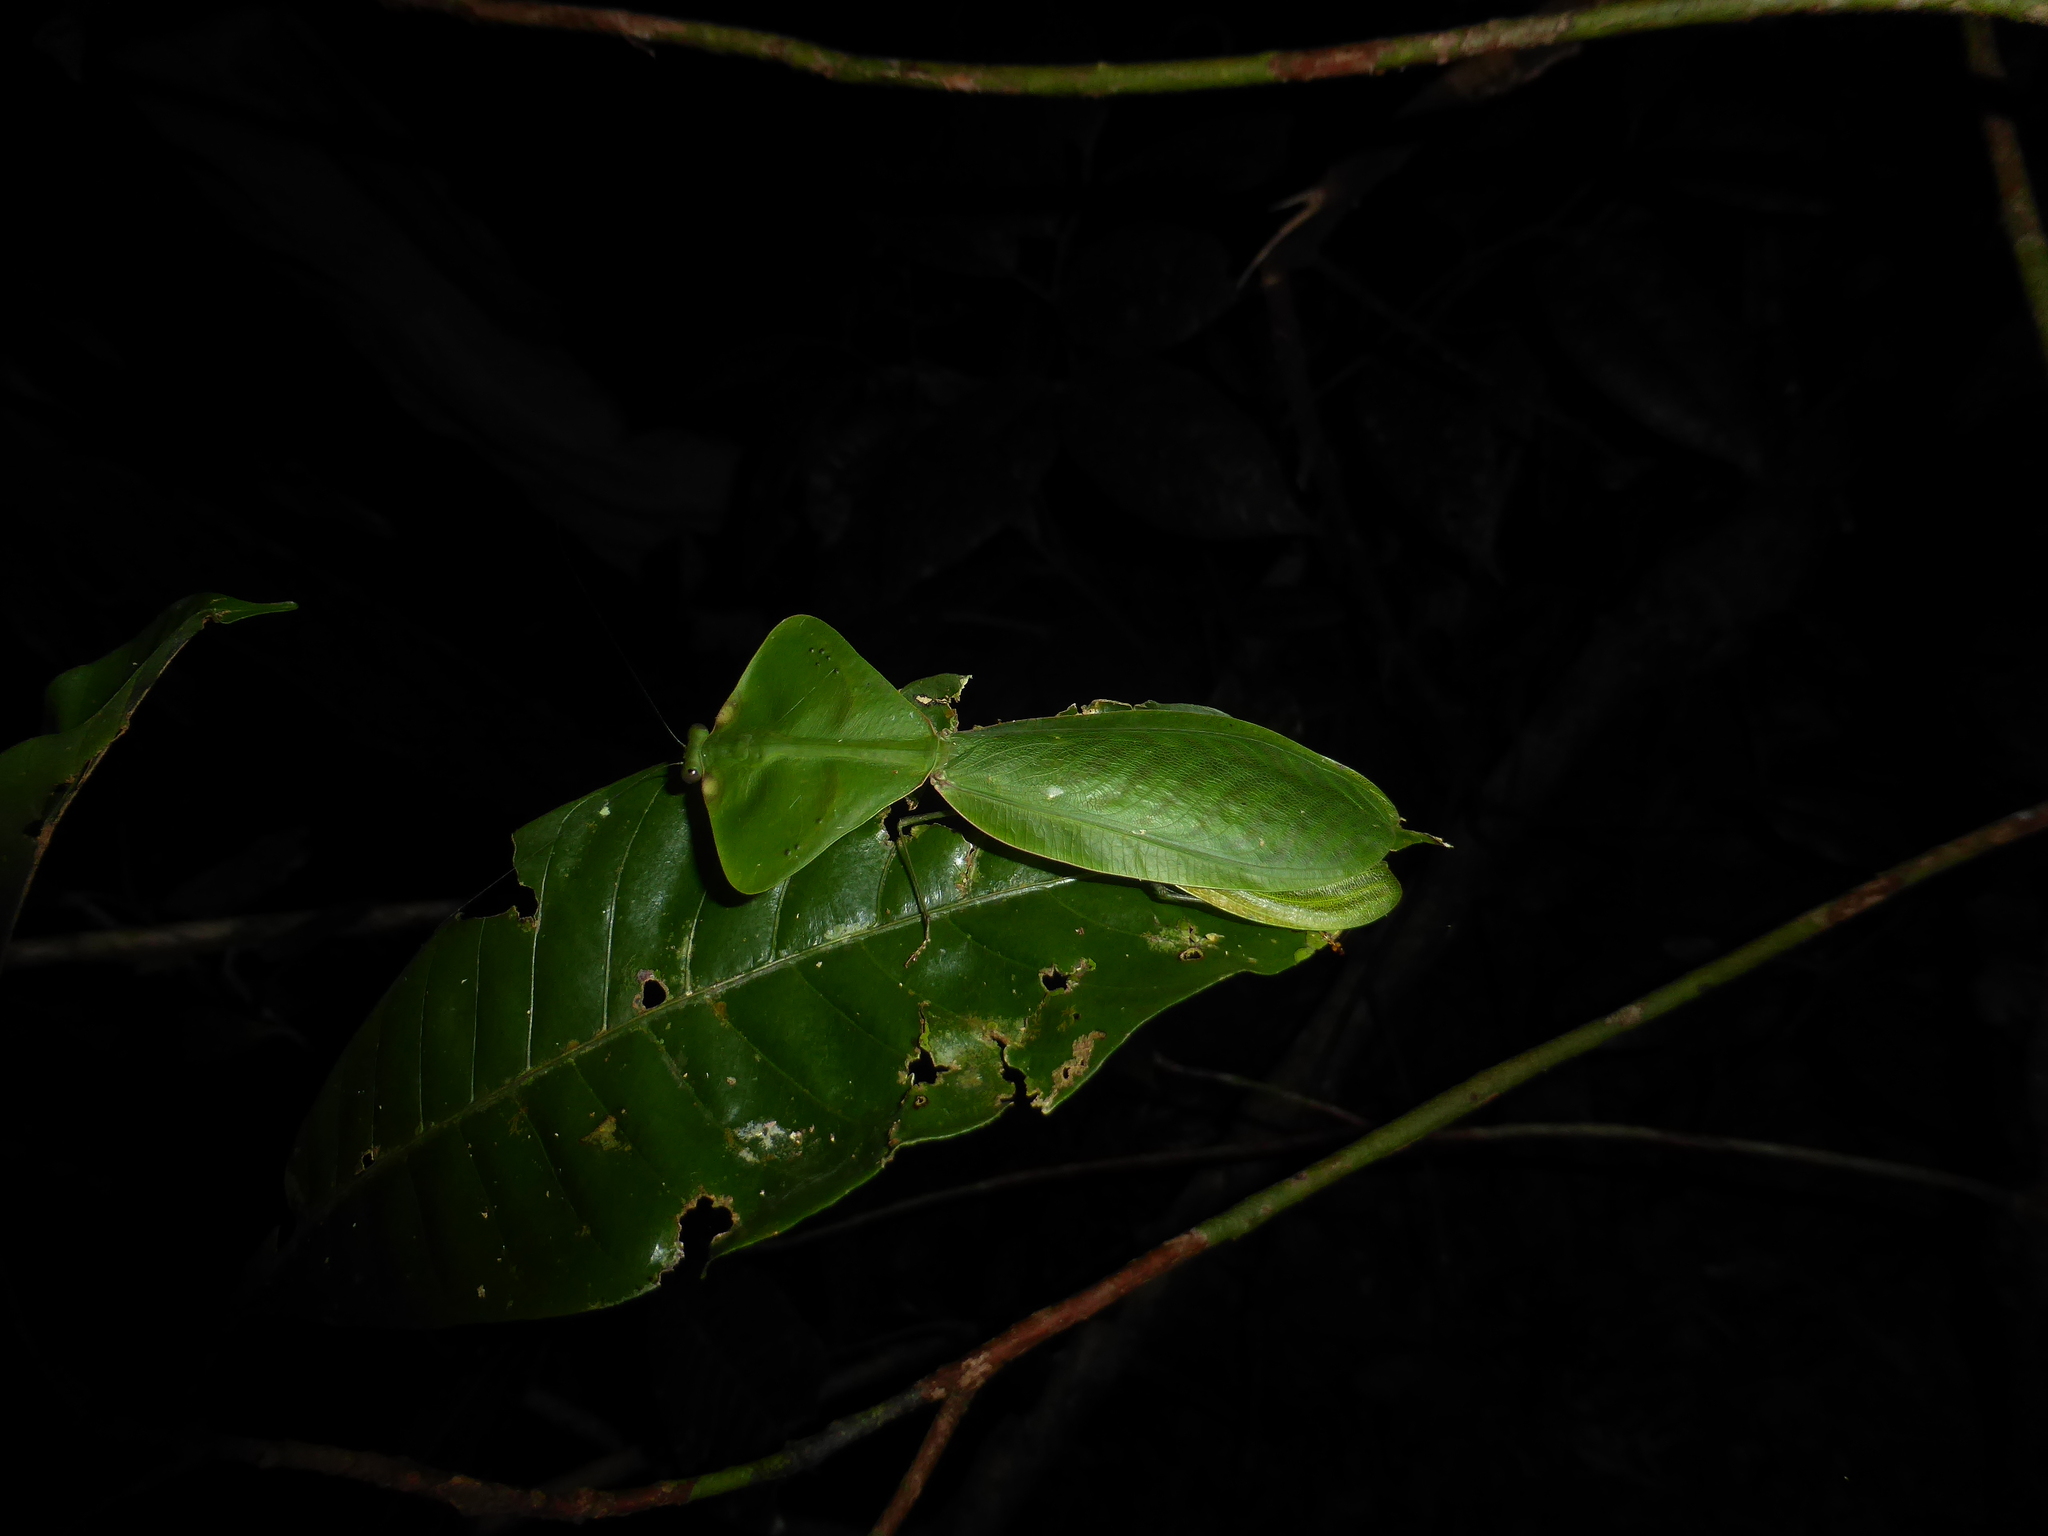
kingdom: Animalia
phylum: Arthropoda
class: Insecta
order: Mantodea
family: Mantidae
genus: Choeradodis
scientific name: Choeradodis strumaria
